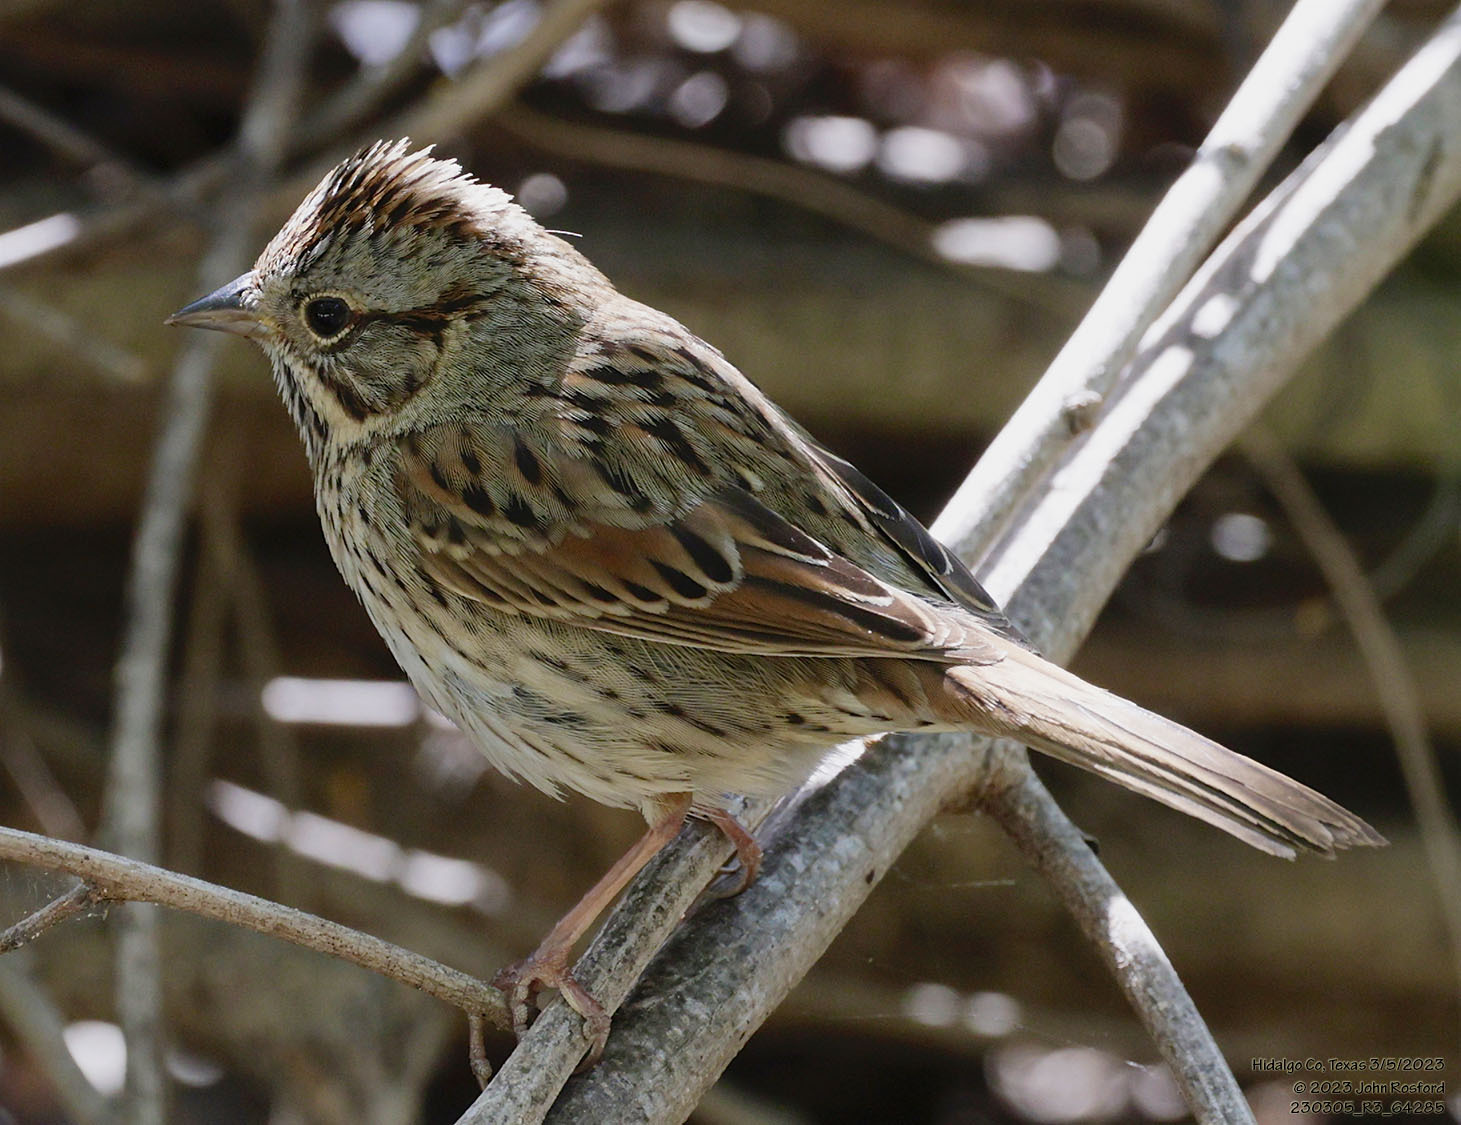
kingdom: Animalia
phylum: Chordata
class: Aves
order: Passeriformes
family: Passerellidae
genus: Melospiza
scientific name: Melospiza lincolnii
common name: Lincoln's sparrow
